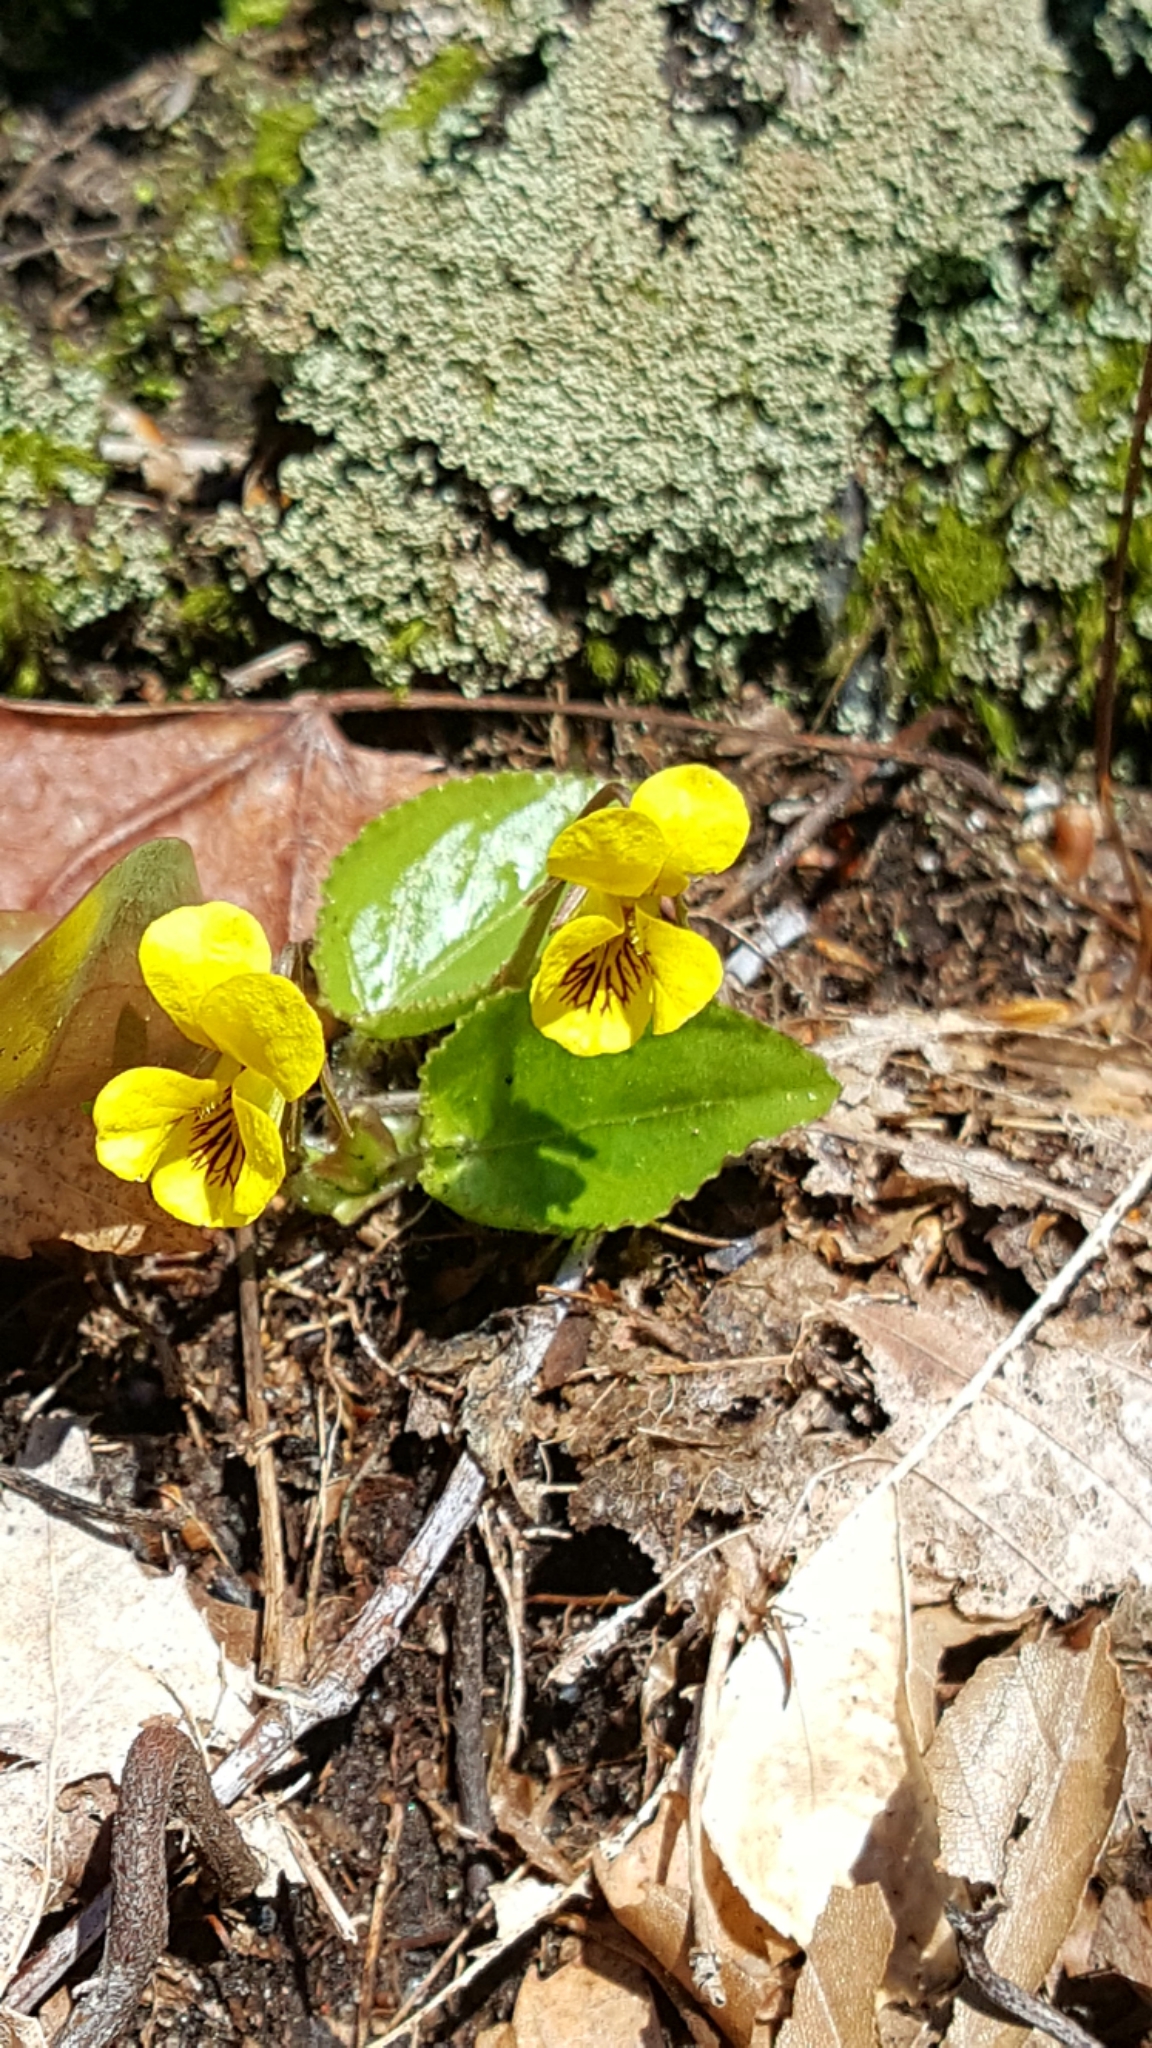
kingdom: Plantae
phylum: Tracheophyta
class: Magnoliopsida
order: Malpighiales
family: Violaceae
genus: Viola
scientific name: Viola rotundifolia
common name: Early yellow violet
